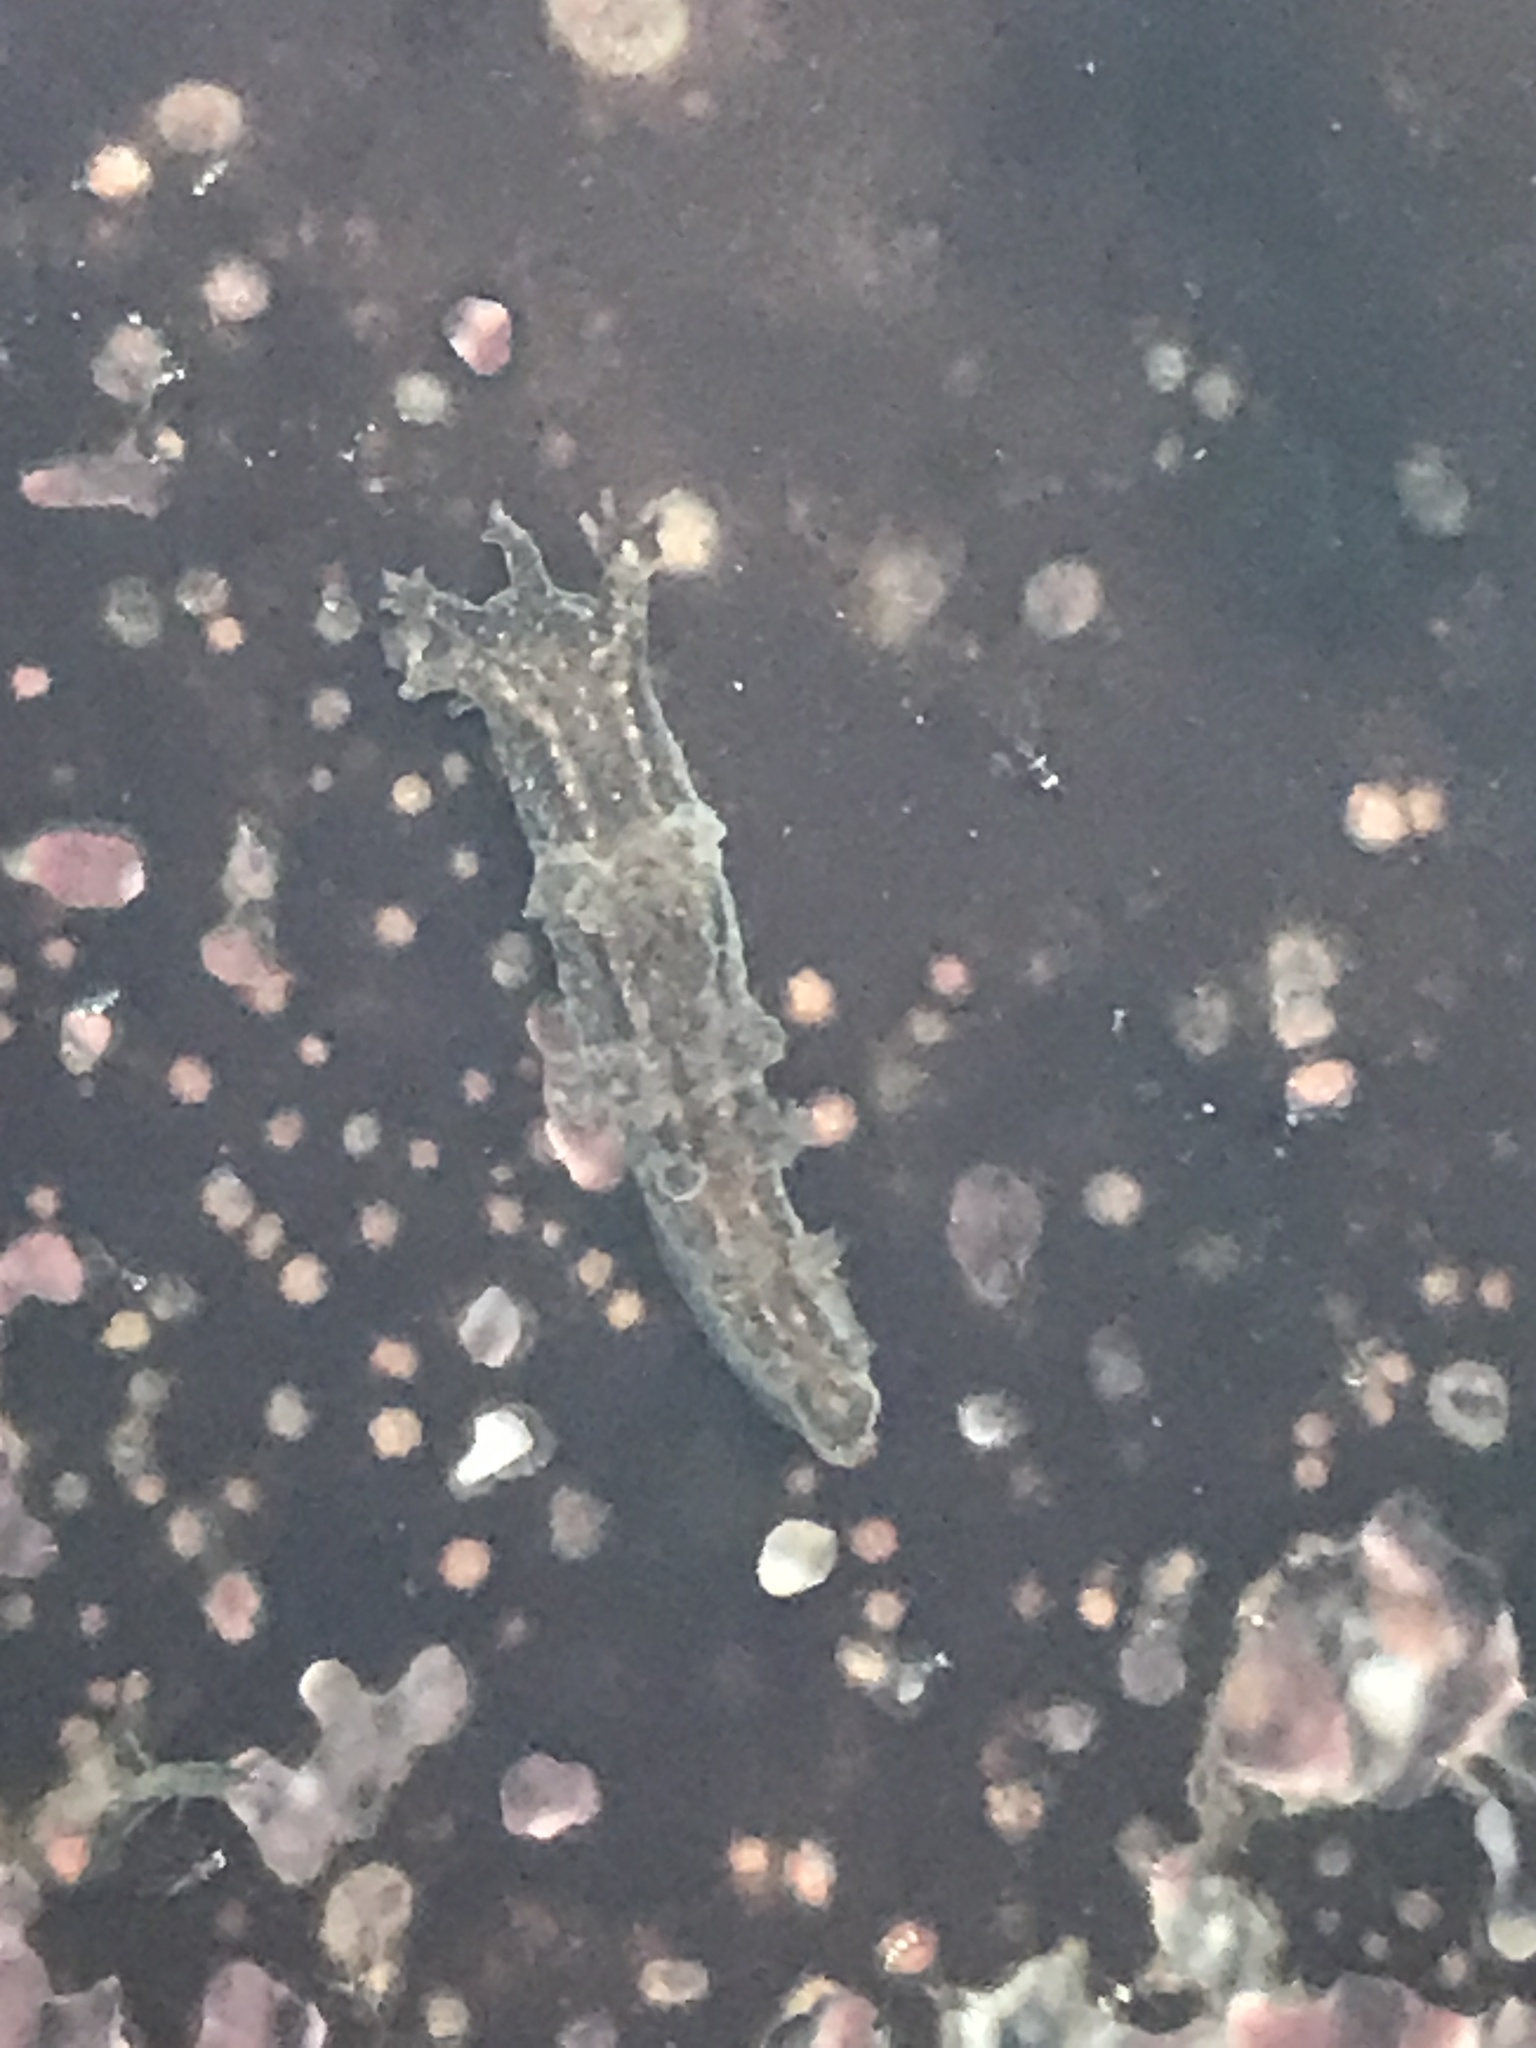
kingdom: Animalia
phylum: Mollusca
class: Gastropoda
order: Nudibranchia
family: Dendronotidae
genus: Dendronotus
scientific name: Dendronotus subramosus
